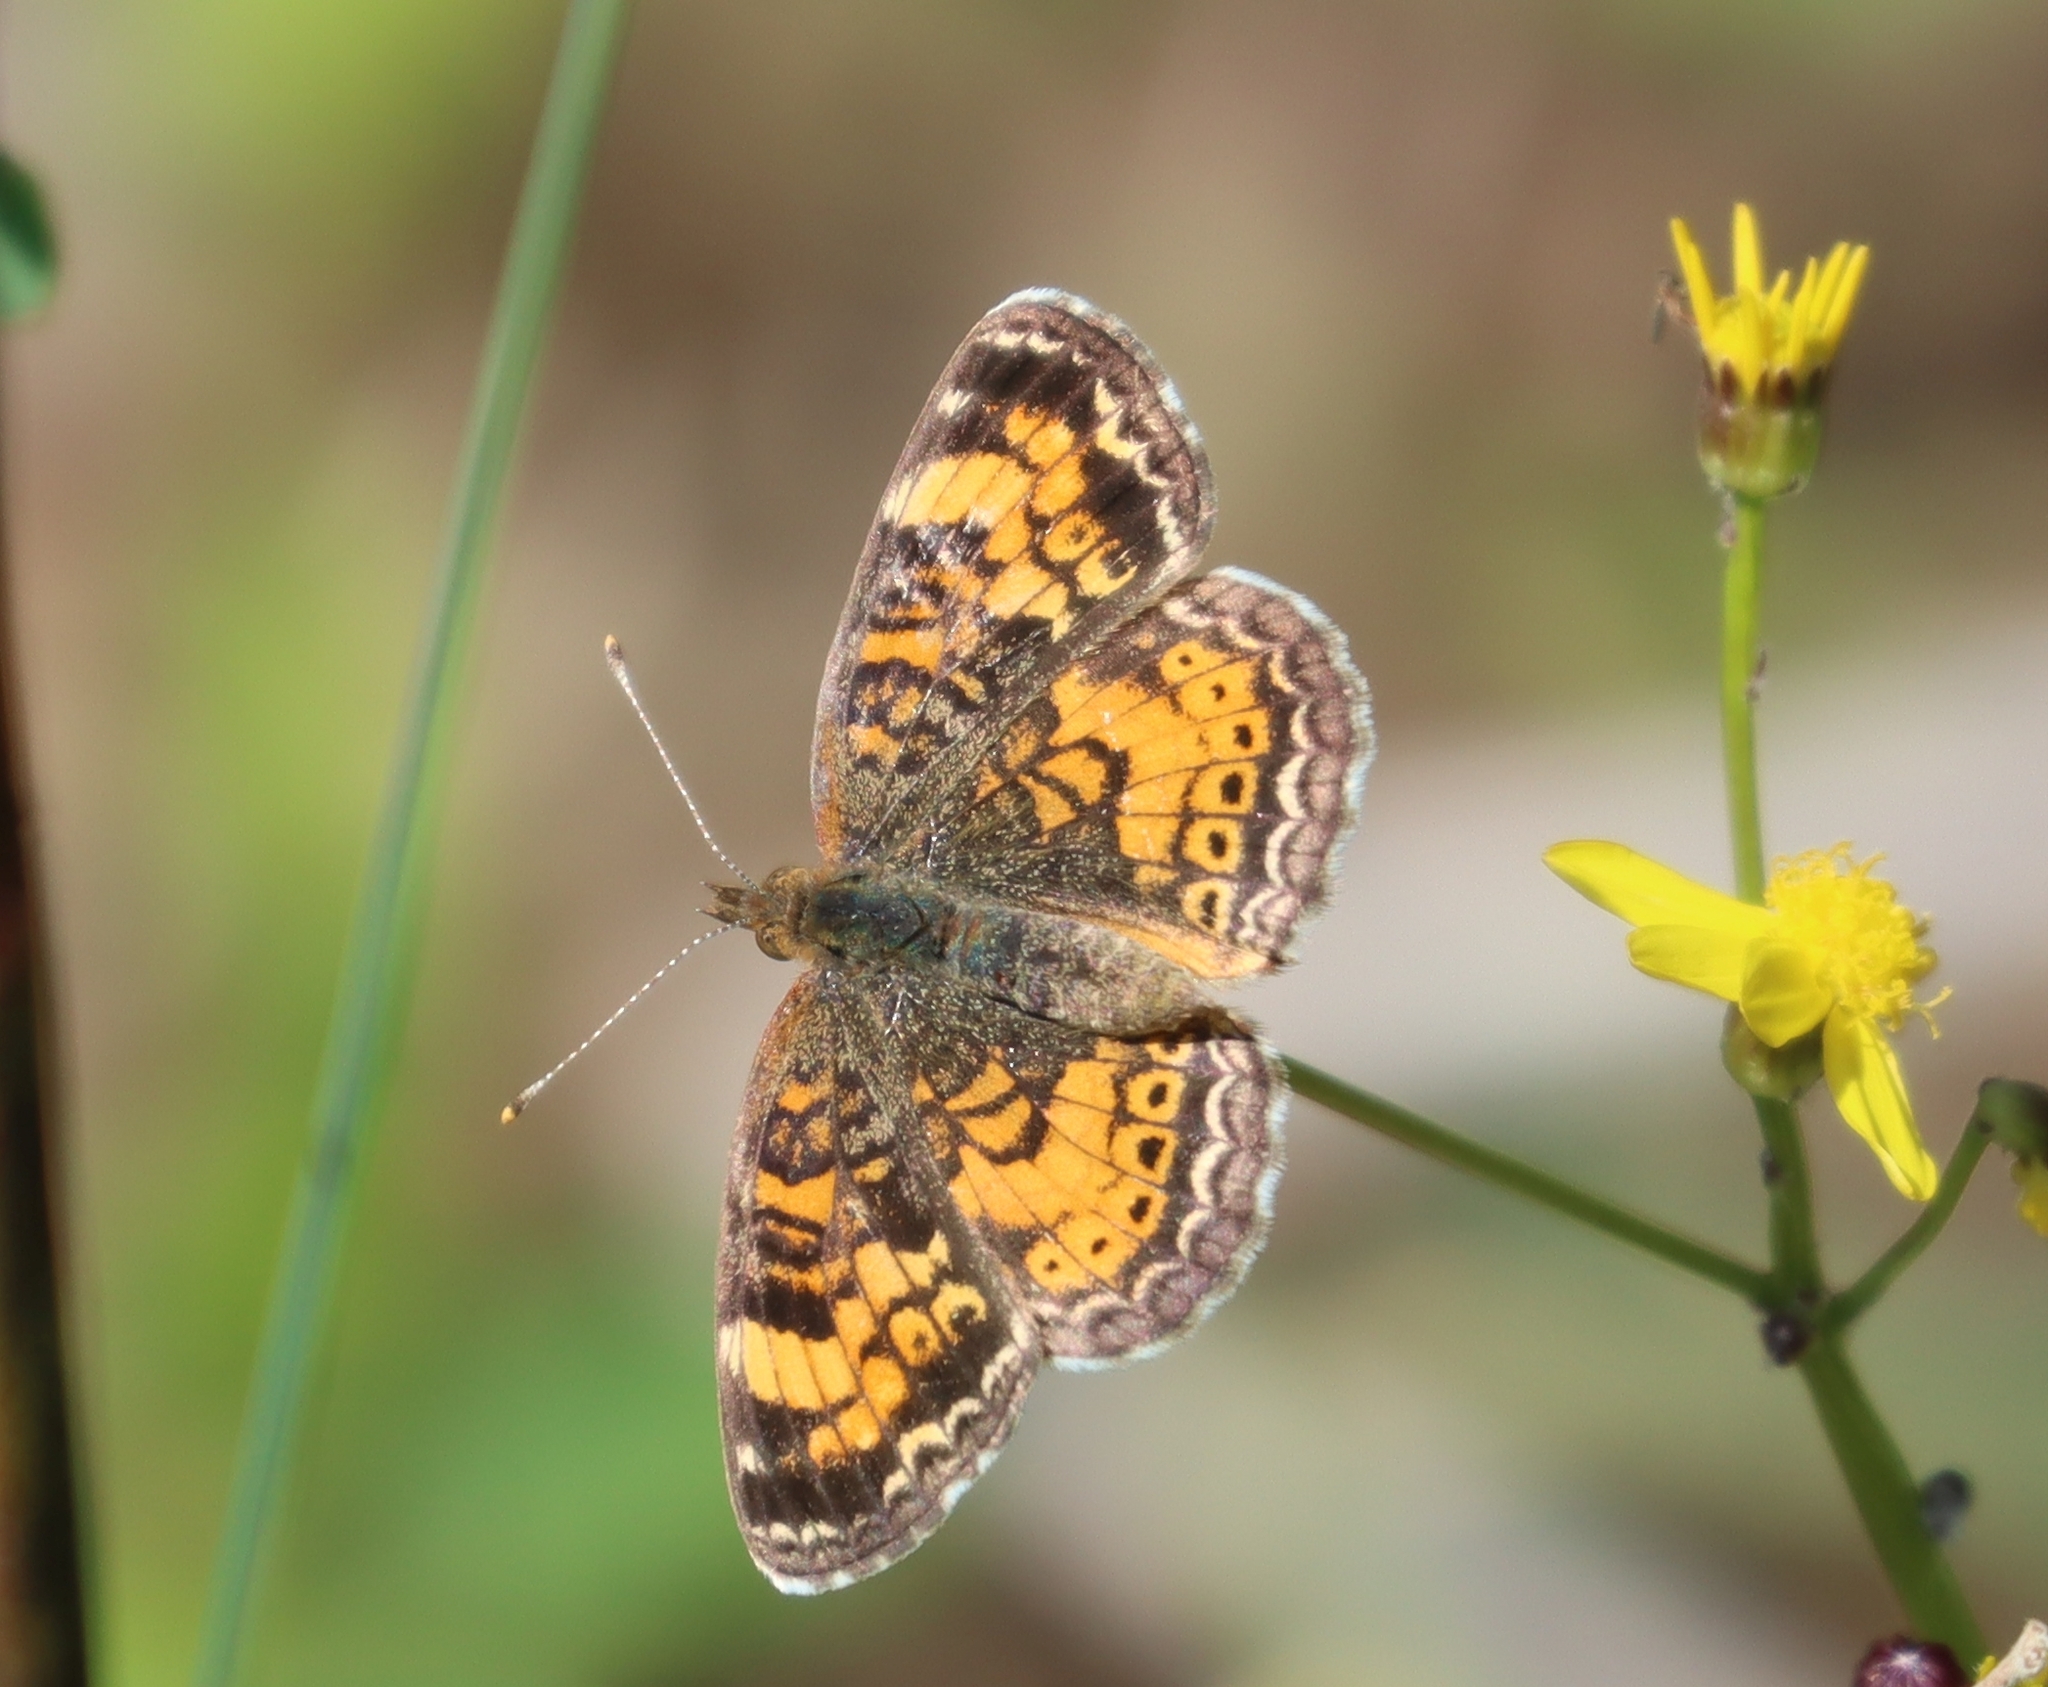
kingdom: Animalia
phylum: Arthropoda
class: Insecta
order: Lepidoptera
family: Nymphalidae
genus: Phyciodes
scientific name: Phyciodes tharos
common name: Pearl crescent
